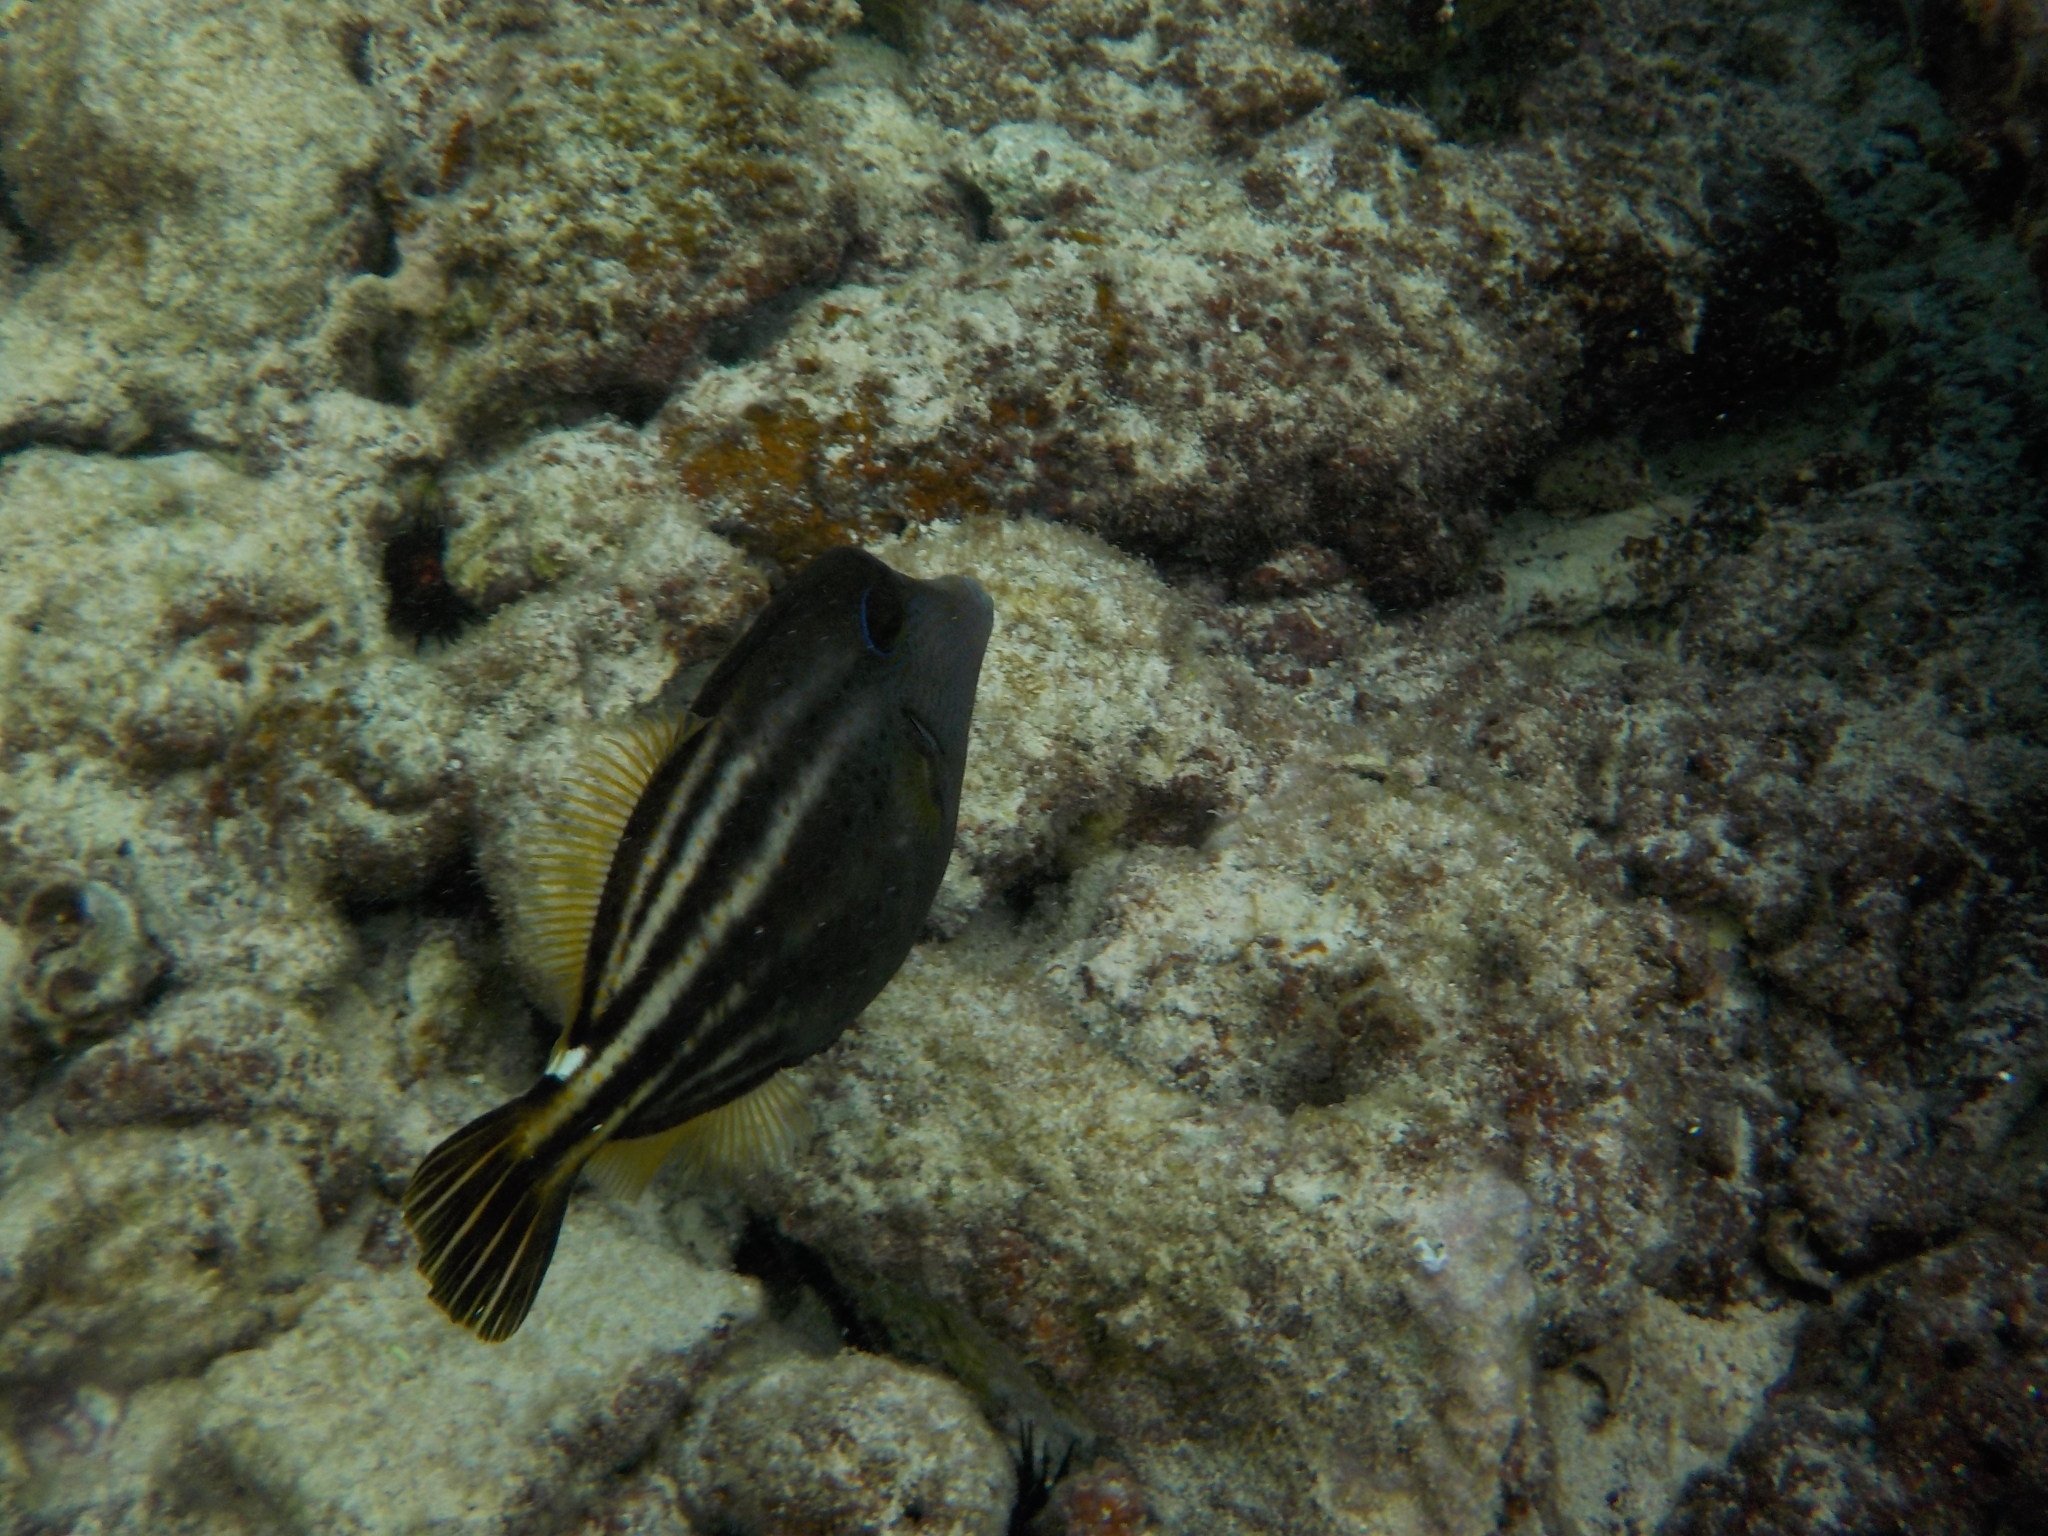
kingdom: Animalia
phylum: Chordata
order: Tetraodontiformes
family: Monacanthidae
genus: Cantherhines
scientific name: Cantherhines pullus
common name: Orangespotted filefish
